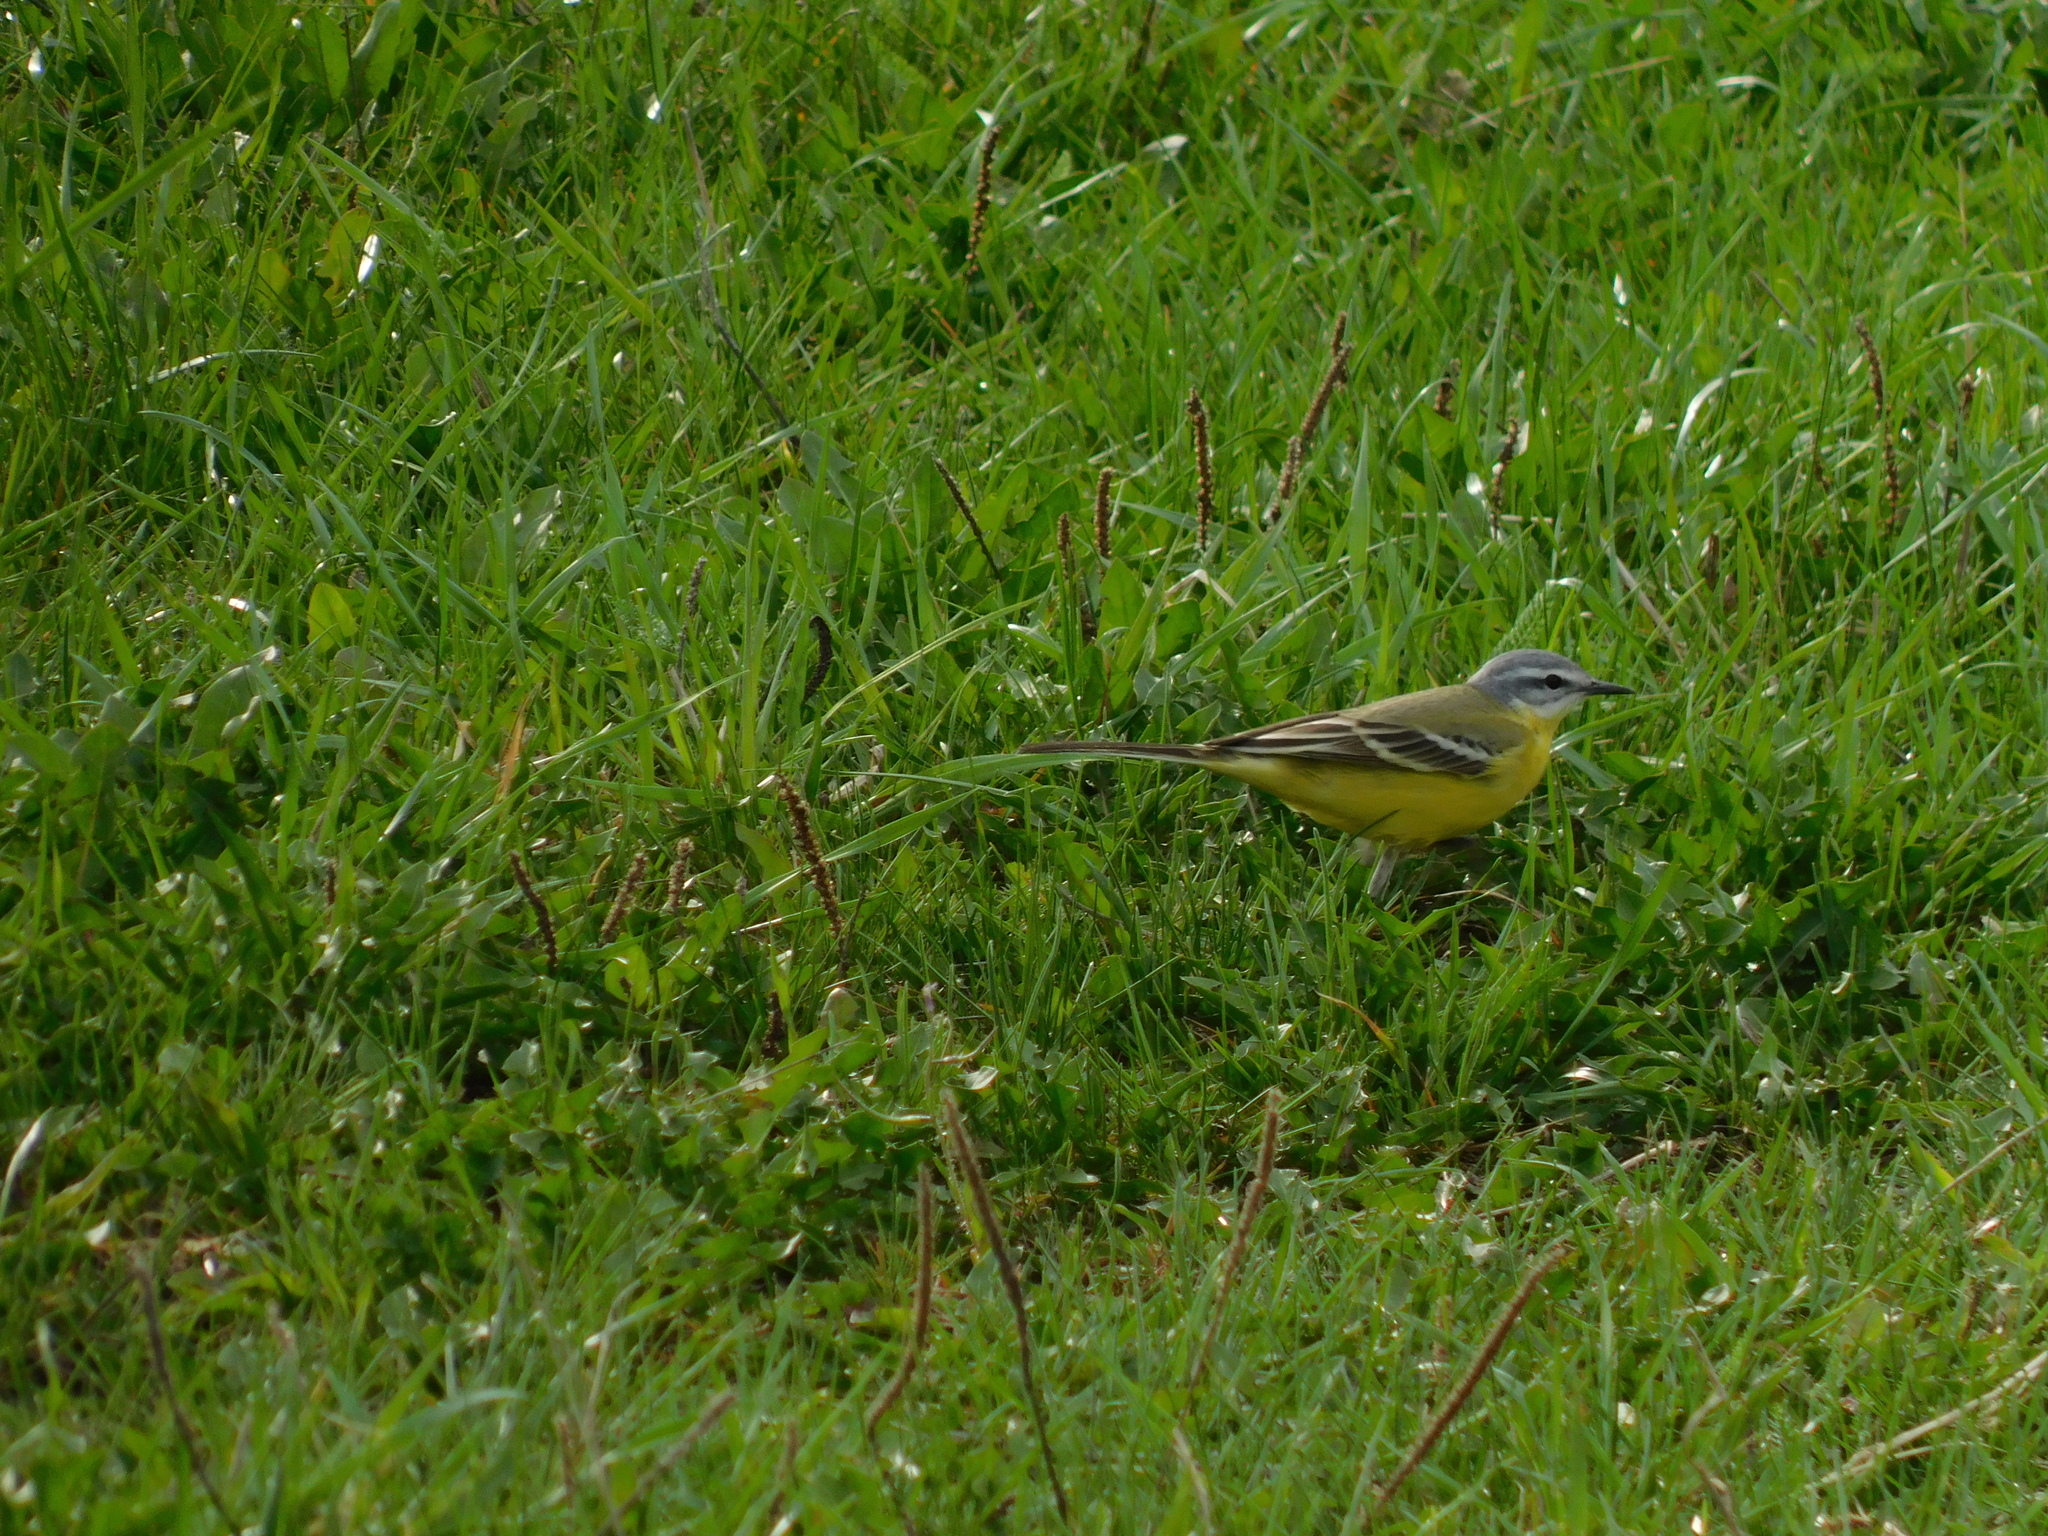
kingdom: Animalia
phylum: Chordata
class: Aves
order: Passeriformes
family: Motacillidae
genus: Motacilla
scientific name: Motacilla flava
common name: Western yellow wagtail
